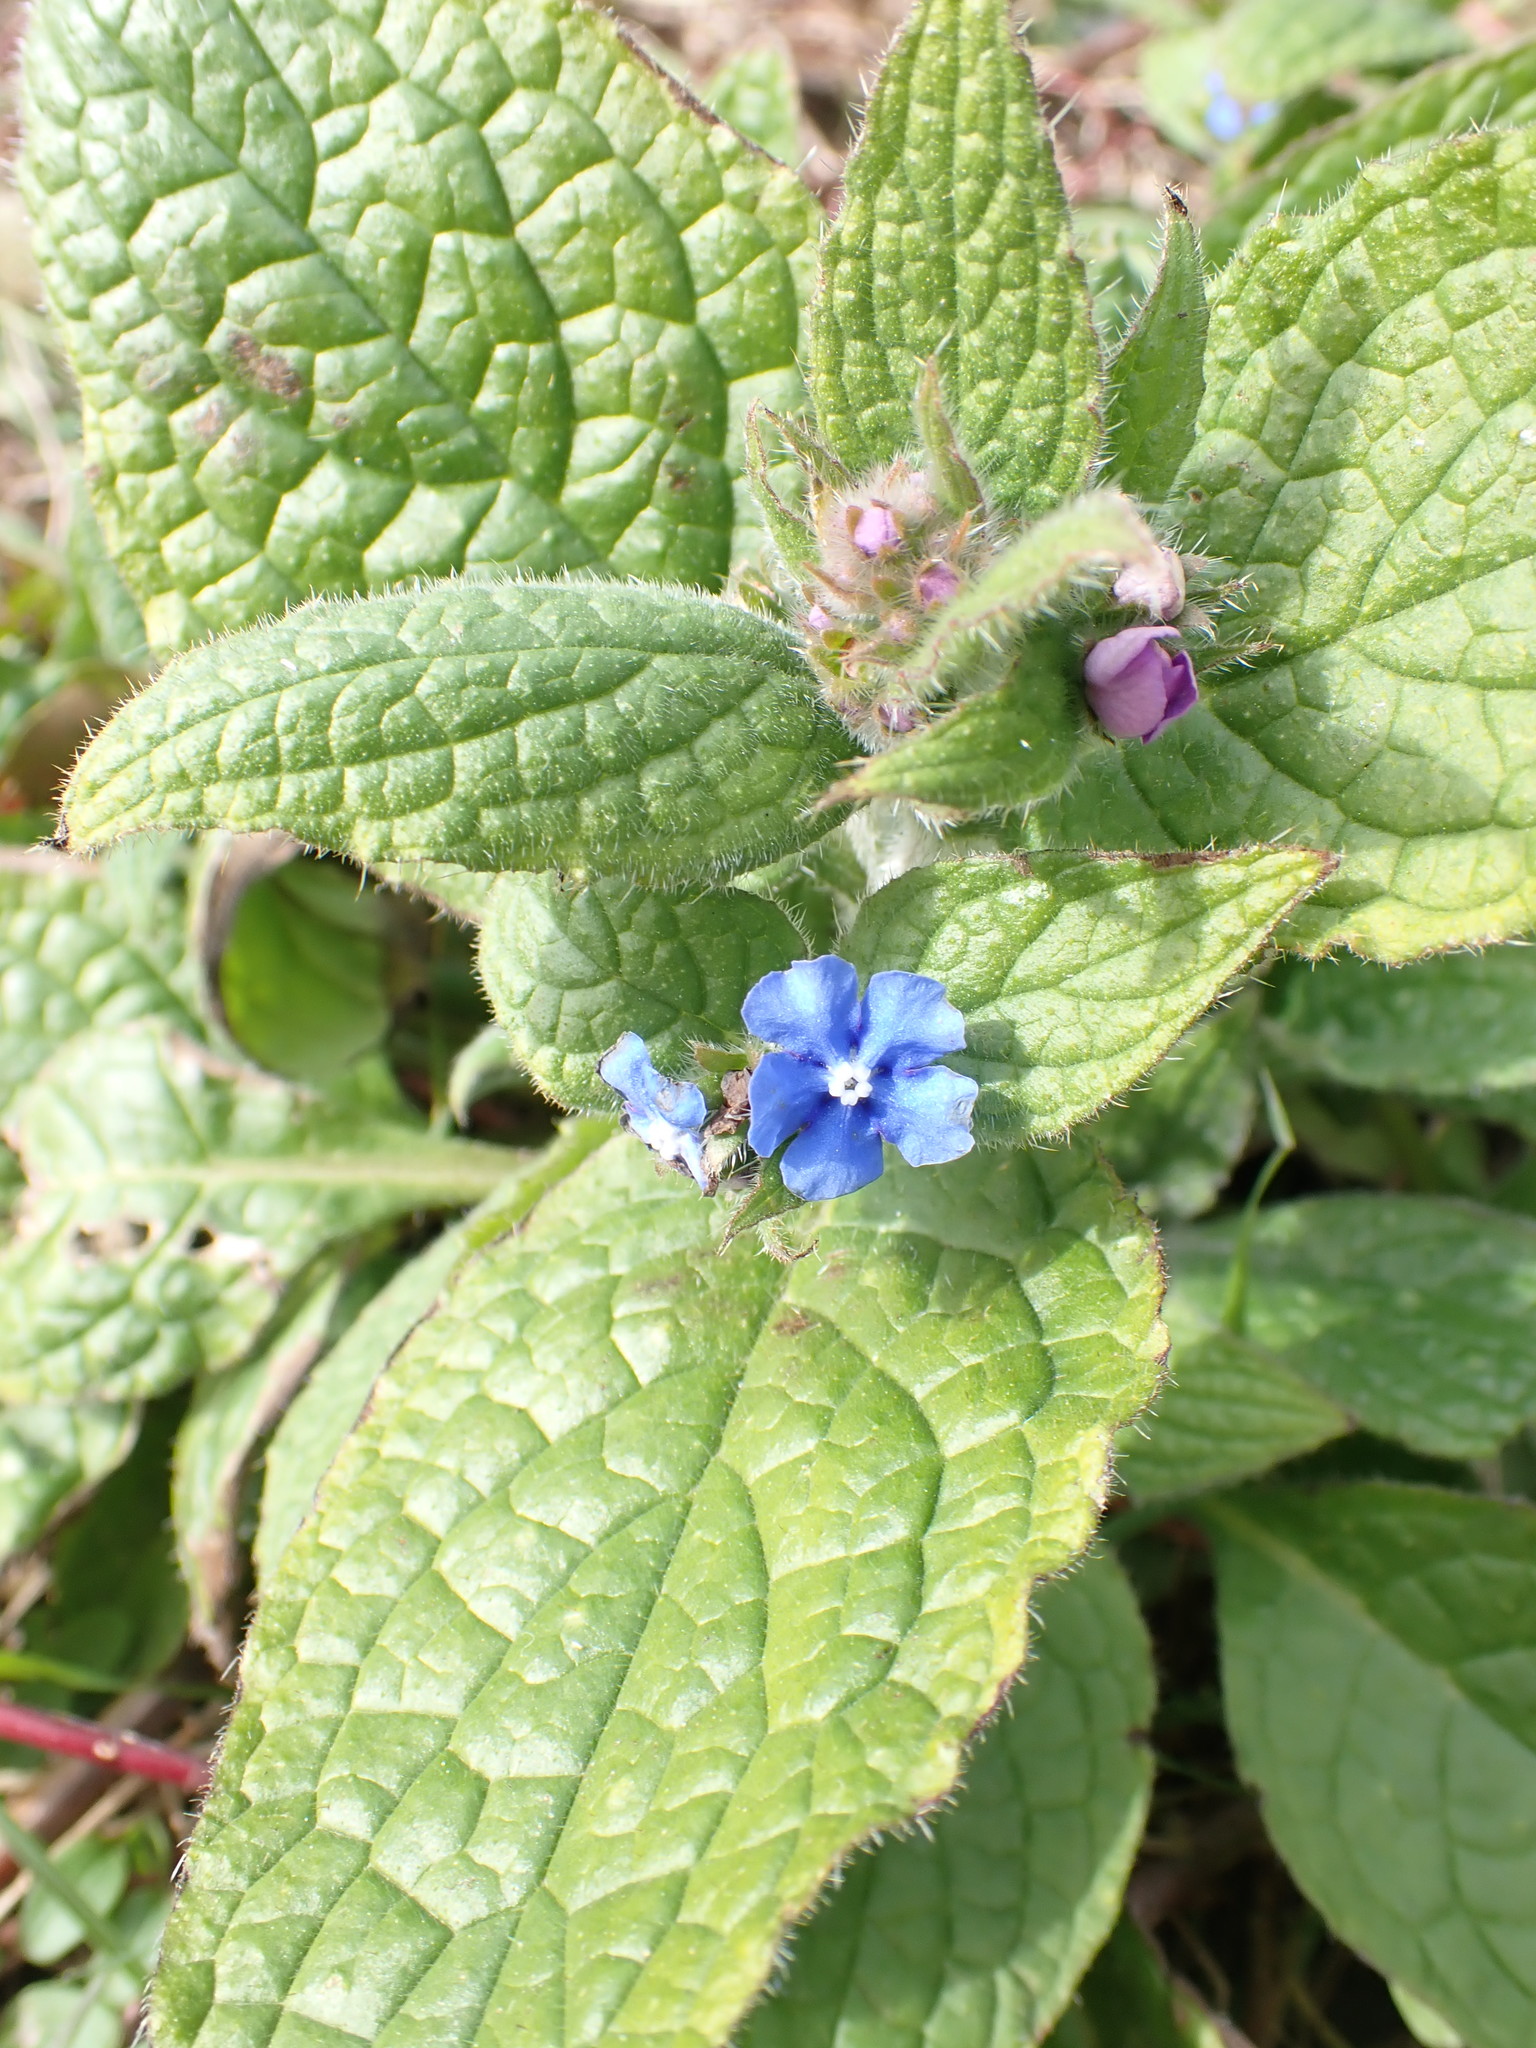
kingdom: Plantae
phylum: Tracheophyta
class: Magnoliopsida
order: Boraginales
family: Boraginaceae
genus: Pentaglottis
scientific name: Pentaglottis sempervirens
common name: Green alkanet
